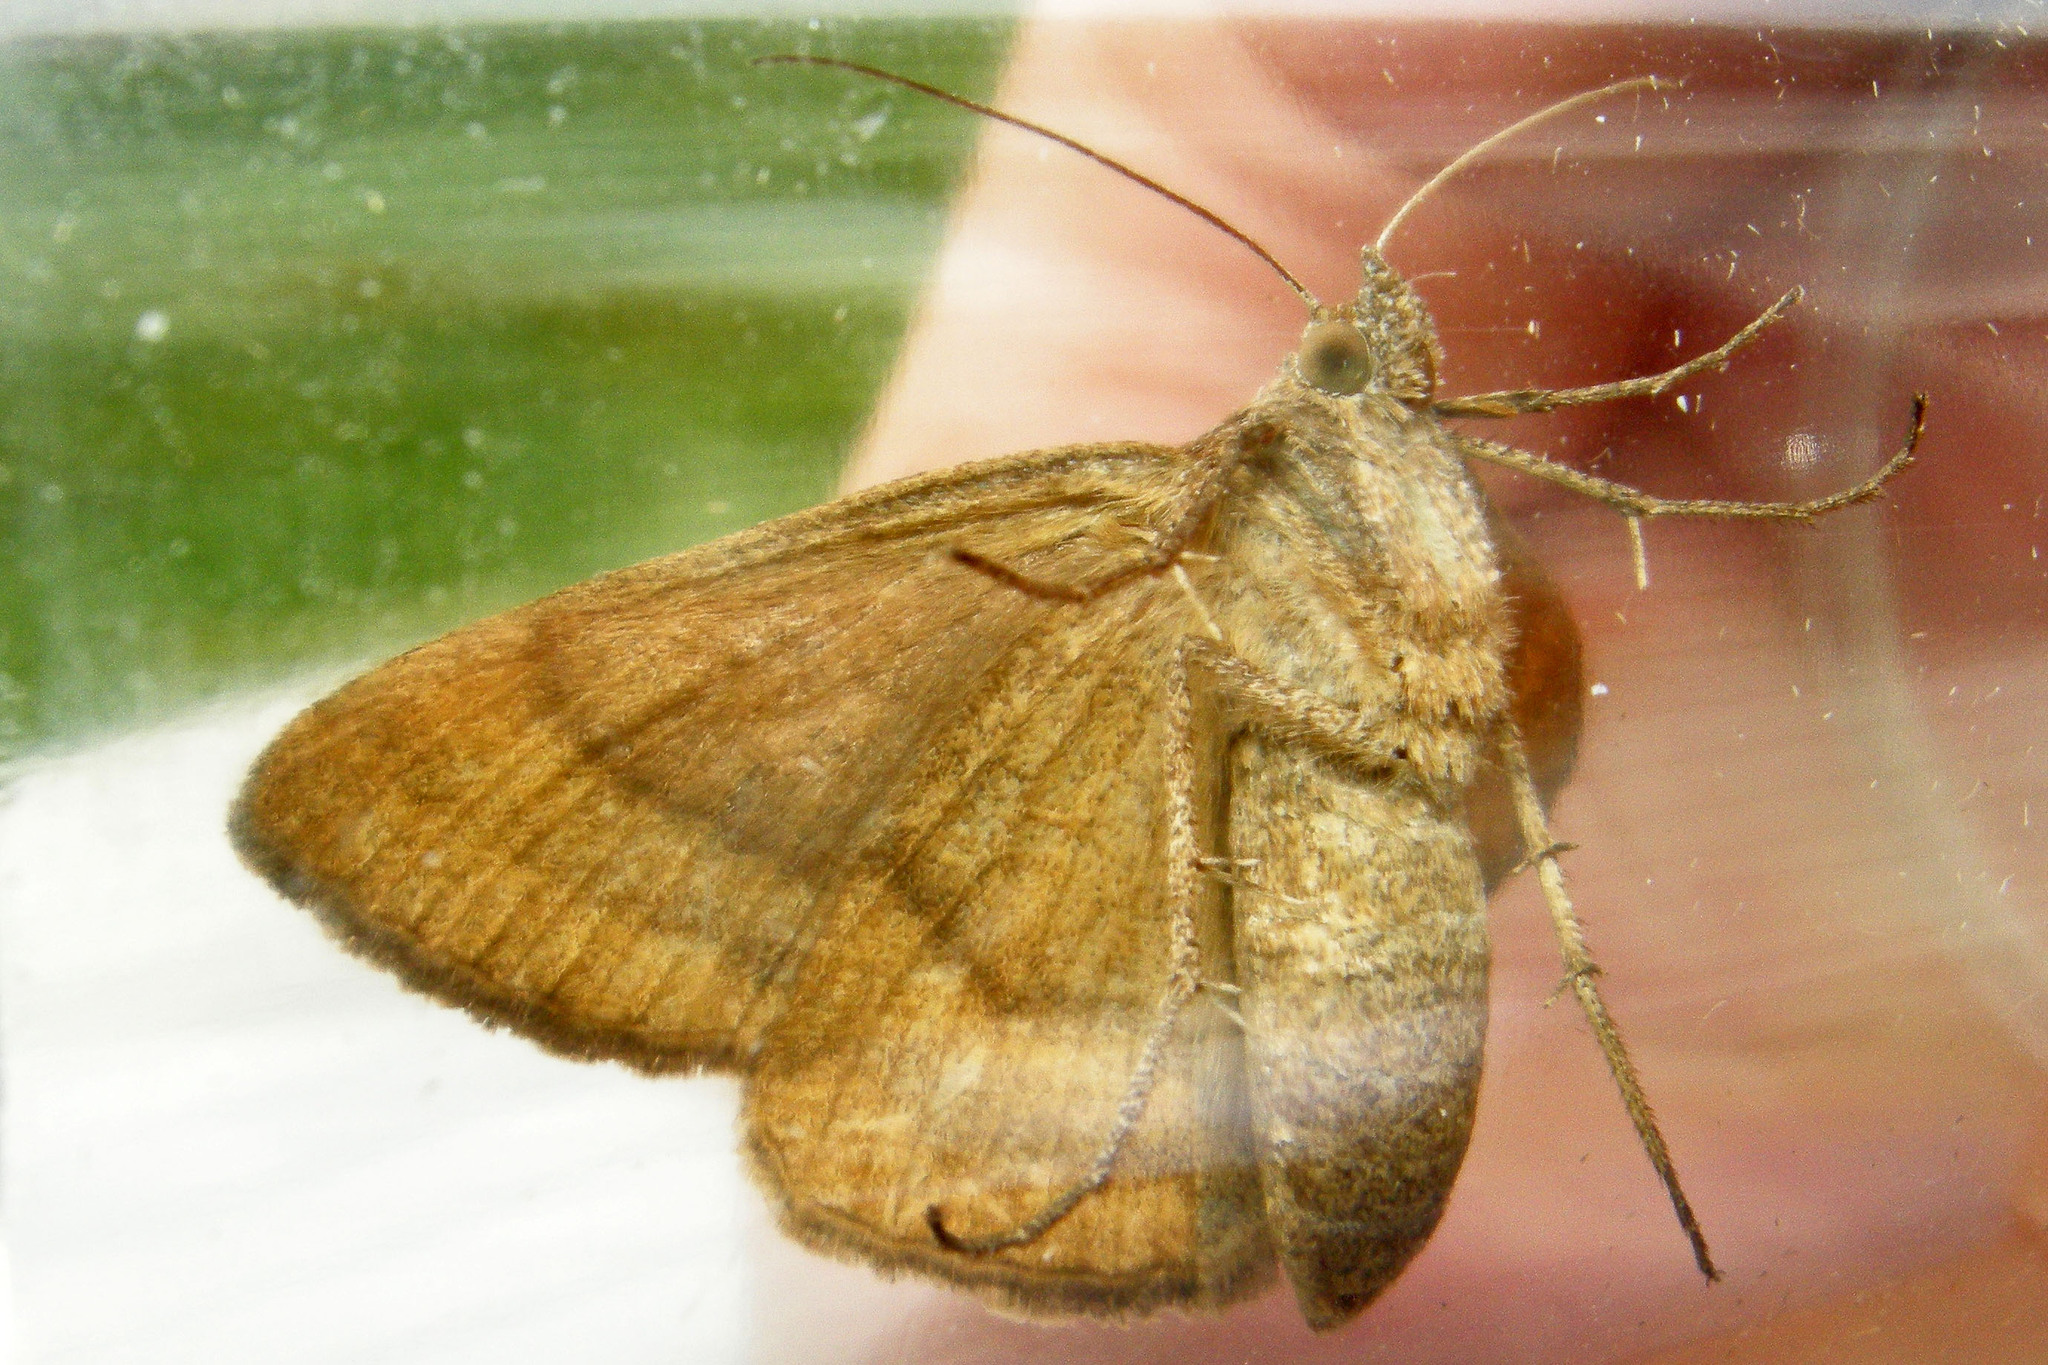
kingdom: Animalia
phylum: Arthropoda
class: Insecta
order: Lepidoptera
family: Erebidae
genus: Caenurgina
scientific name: Caenurgina erechtea
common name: Forage looper moth
